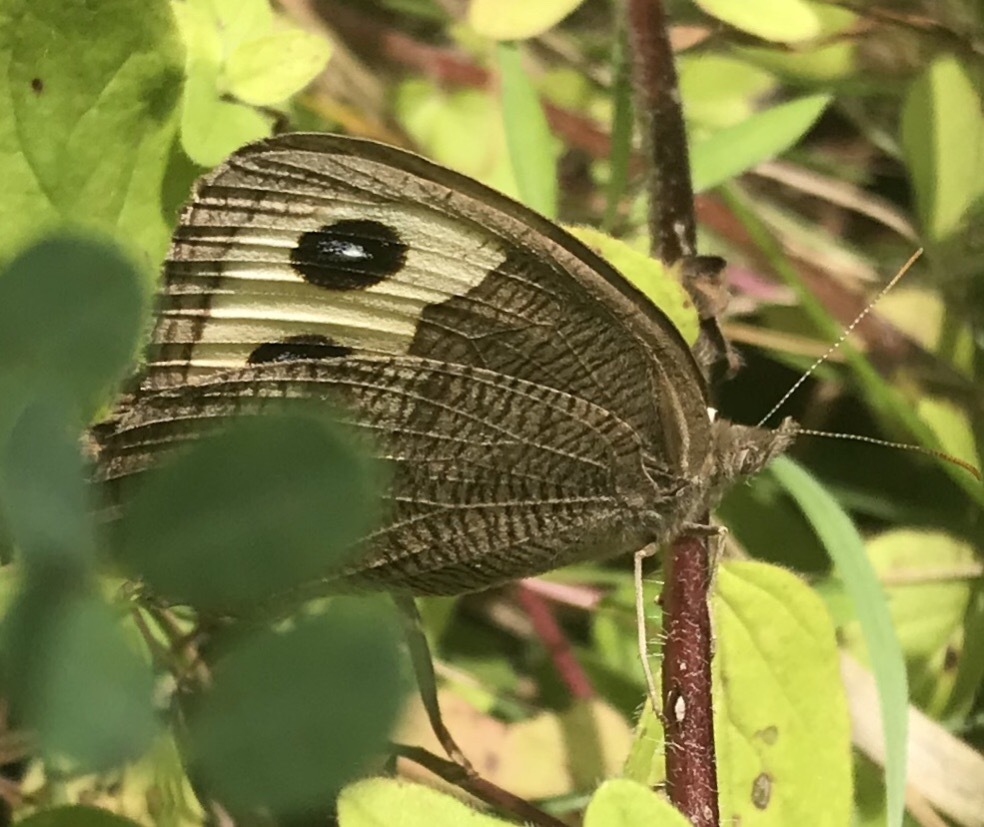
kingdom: Animalia
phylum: Arthropoda
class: Insecta
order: Lepidoptera
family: Nymphalidae
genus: Cercyonis
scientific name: Cercyonis pegala
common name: Common wood-nymph
